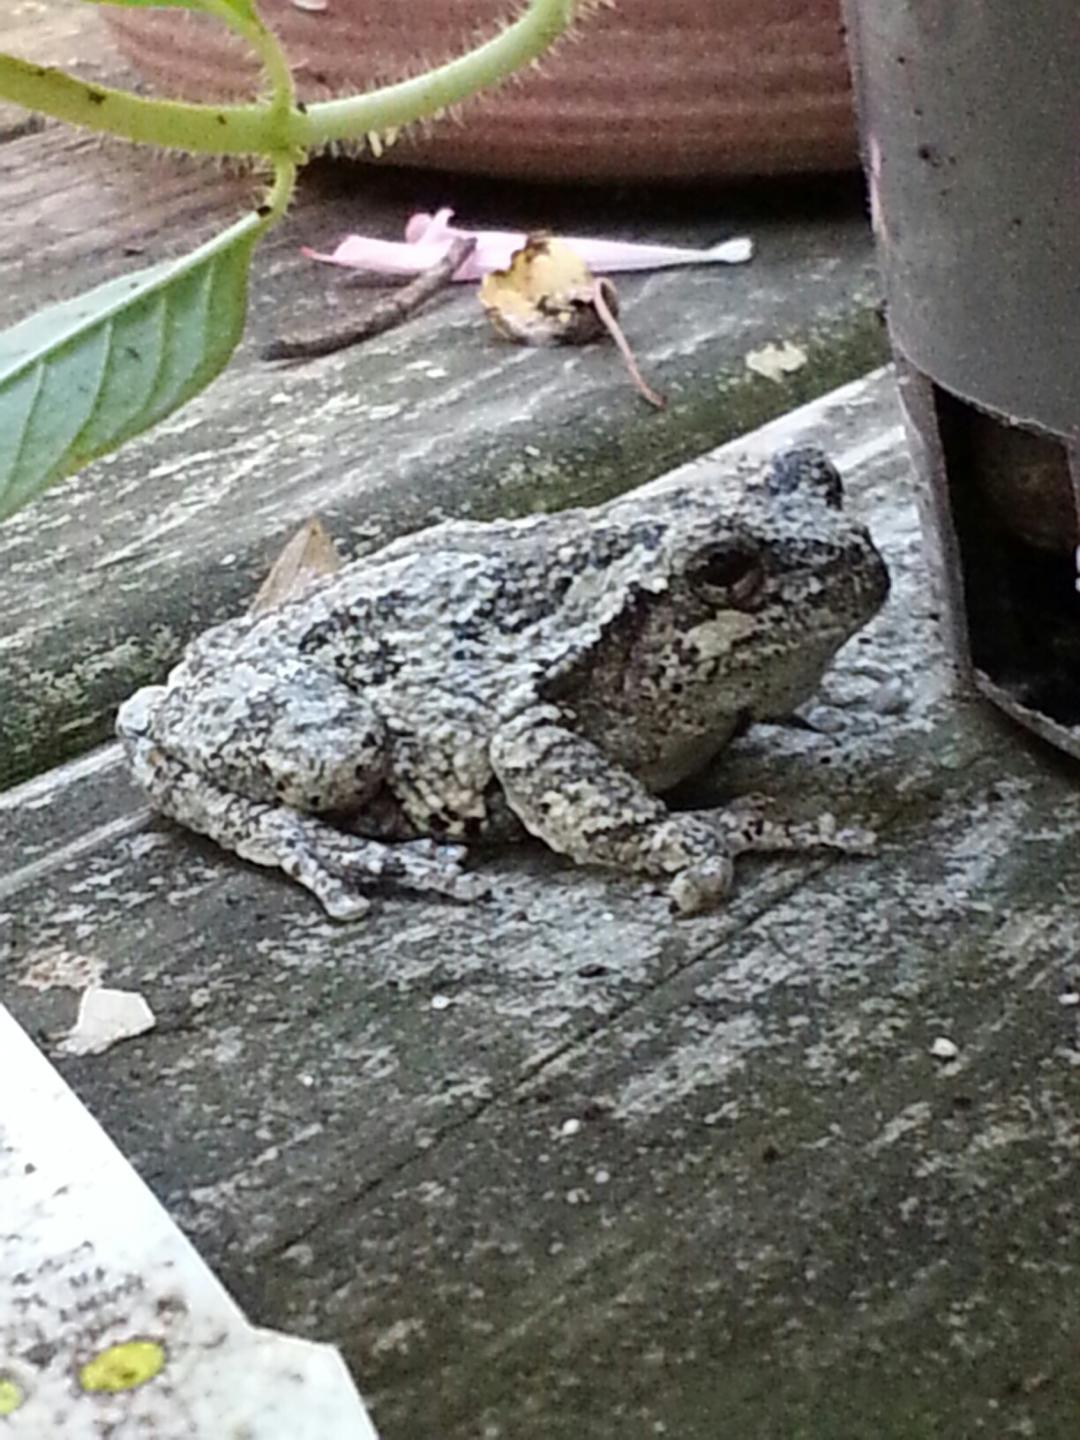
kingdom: Animalia
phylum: Chordata
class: Amphibia
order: Anura
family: Hylidae
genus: Dryophytes
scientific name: Dryophytes versicolor
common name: Gray treefrog
